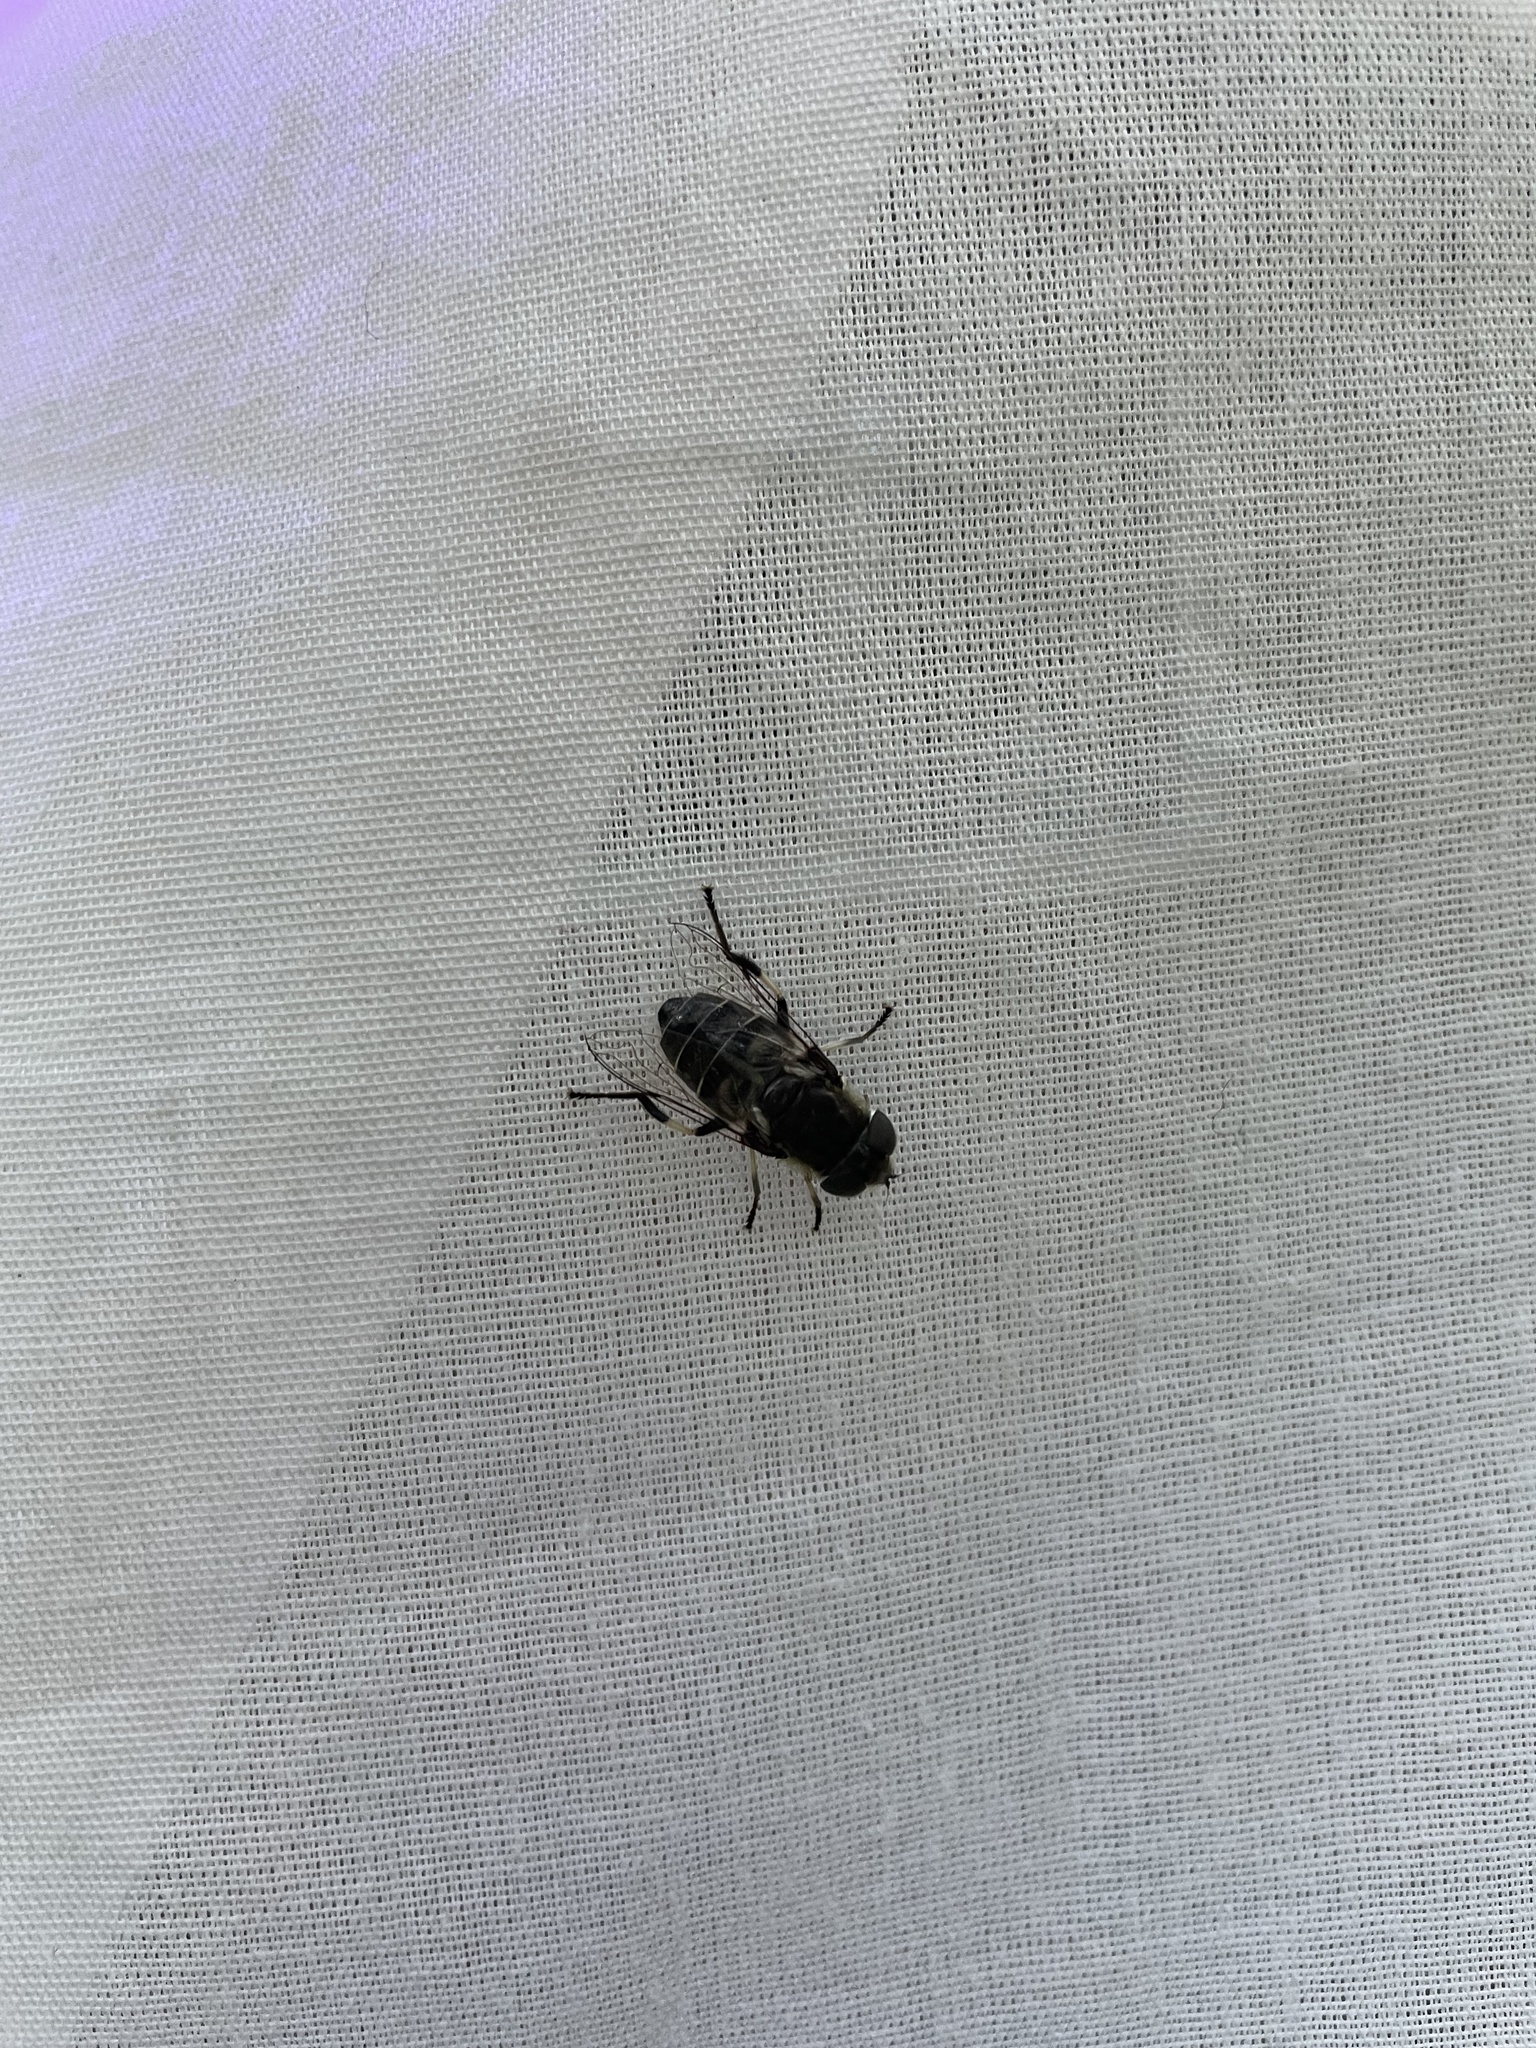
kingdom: Animalia
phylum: Arthropoda
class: Insecta
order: Diptera
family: Syrphidae
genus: Eristalis
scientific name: Eristalis dimidiata
